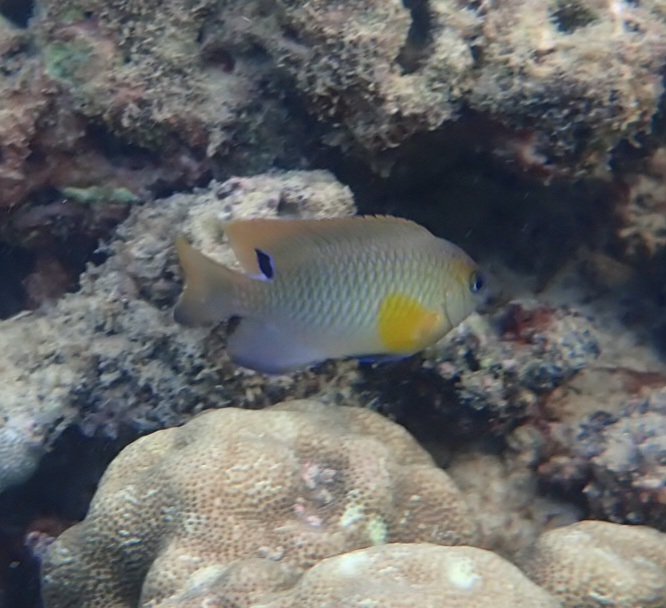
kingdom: Animalia
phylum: Chordata
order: Perciformes
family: Pomacentridae
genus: Chrysiptera
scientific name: Chrysiptera unimaculata
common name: Onespot demoiselle
